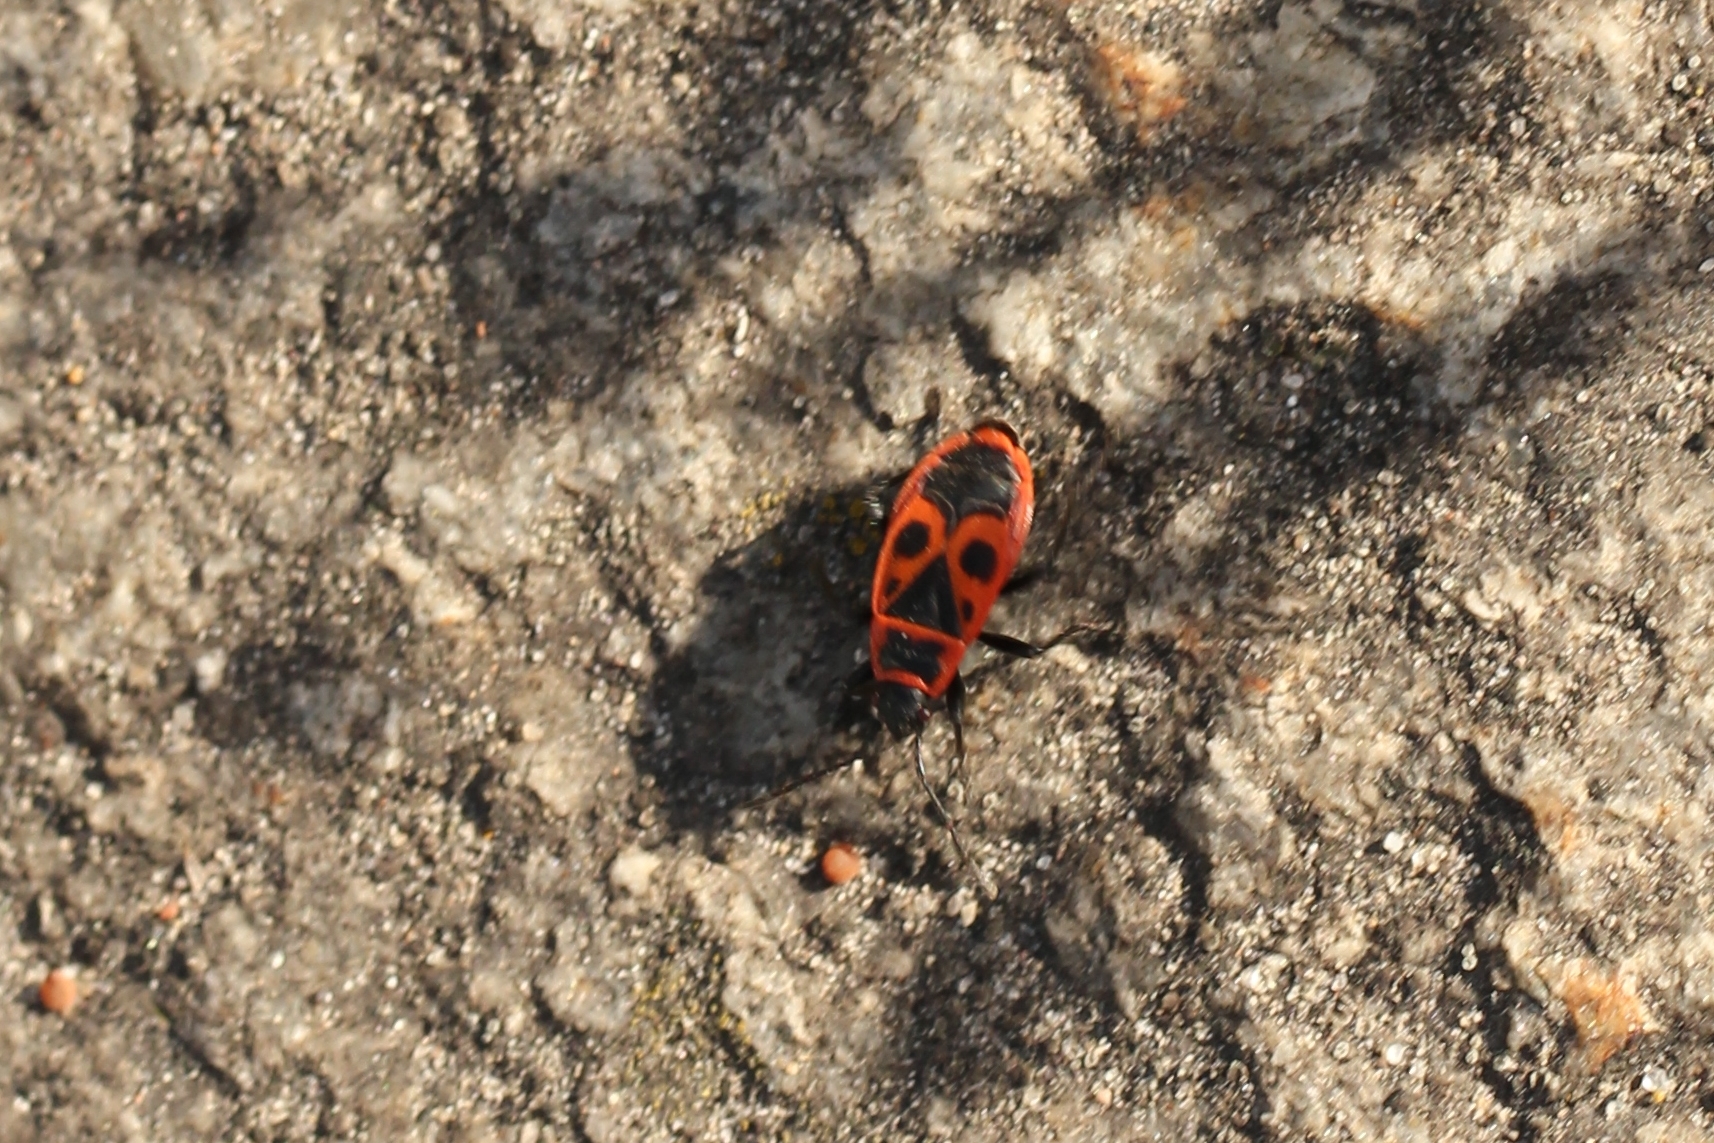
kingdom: Animalia
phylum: Arthropoda
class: Insecta
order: Hemiptera
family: Pyrrhocoridae
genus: Pyrrhocoris
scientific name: Pyrrhocoris apterus
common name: Firebug
